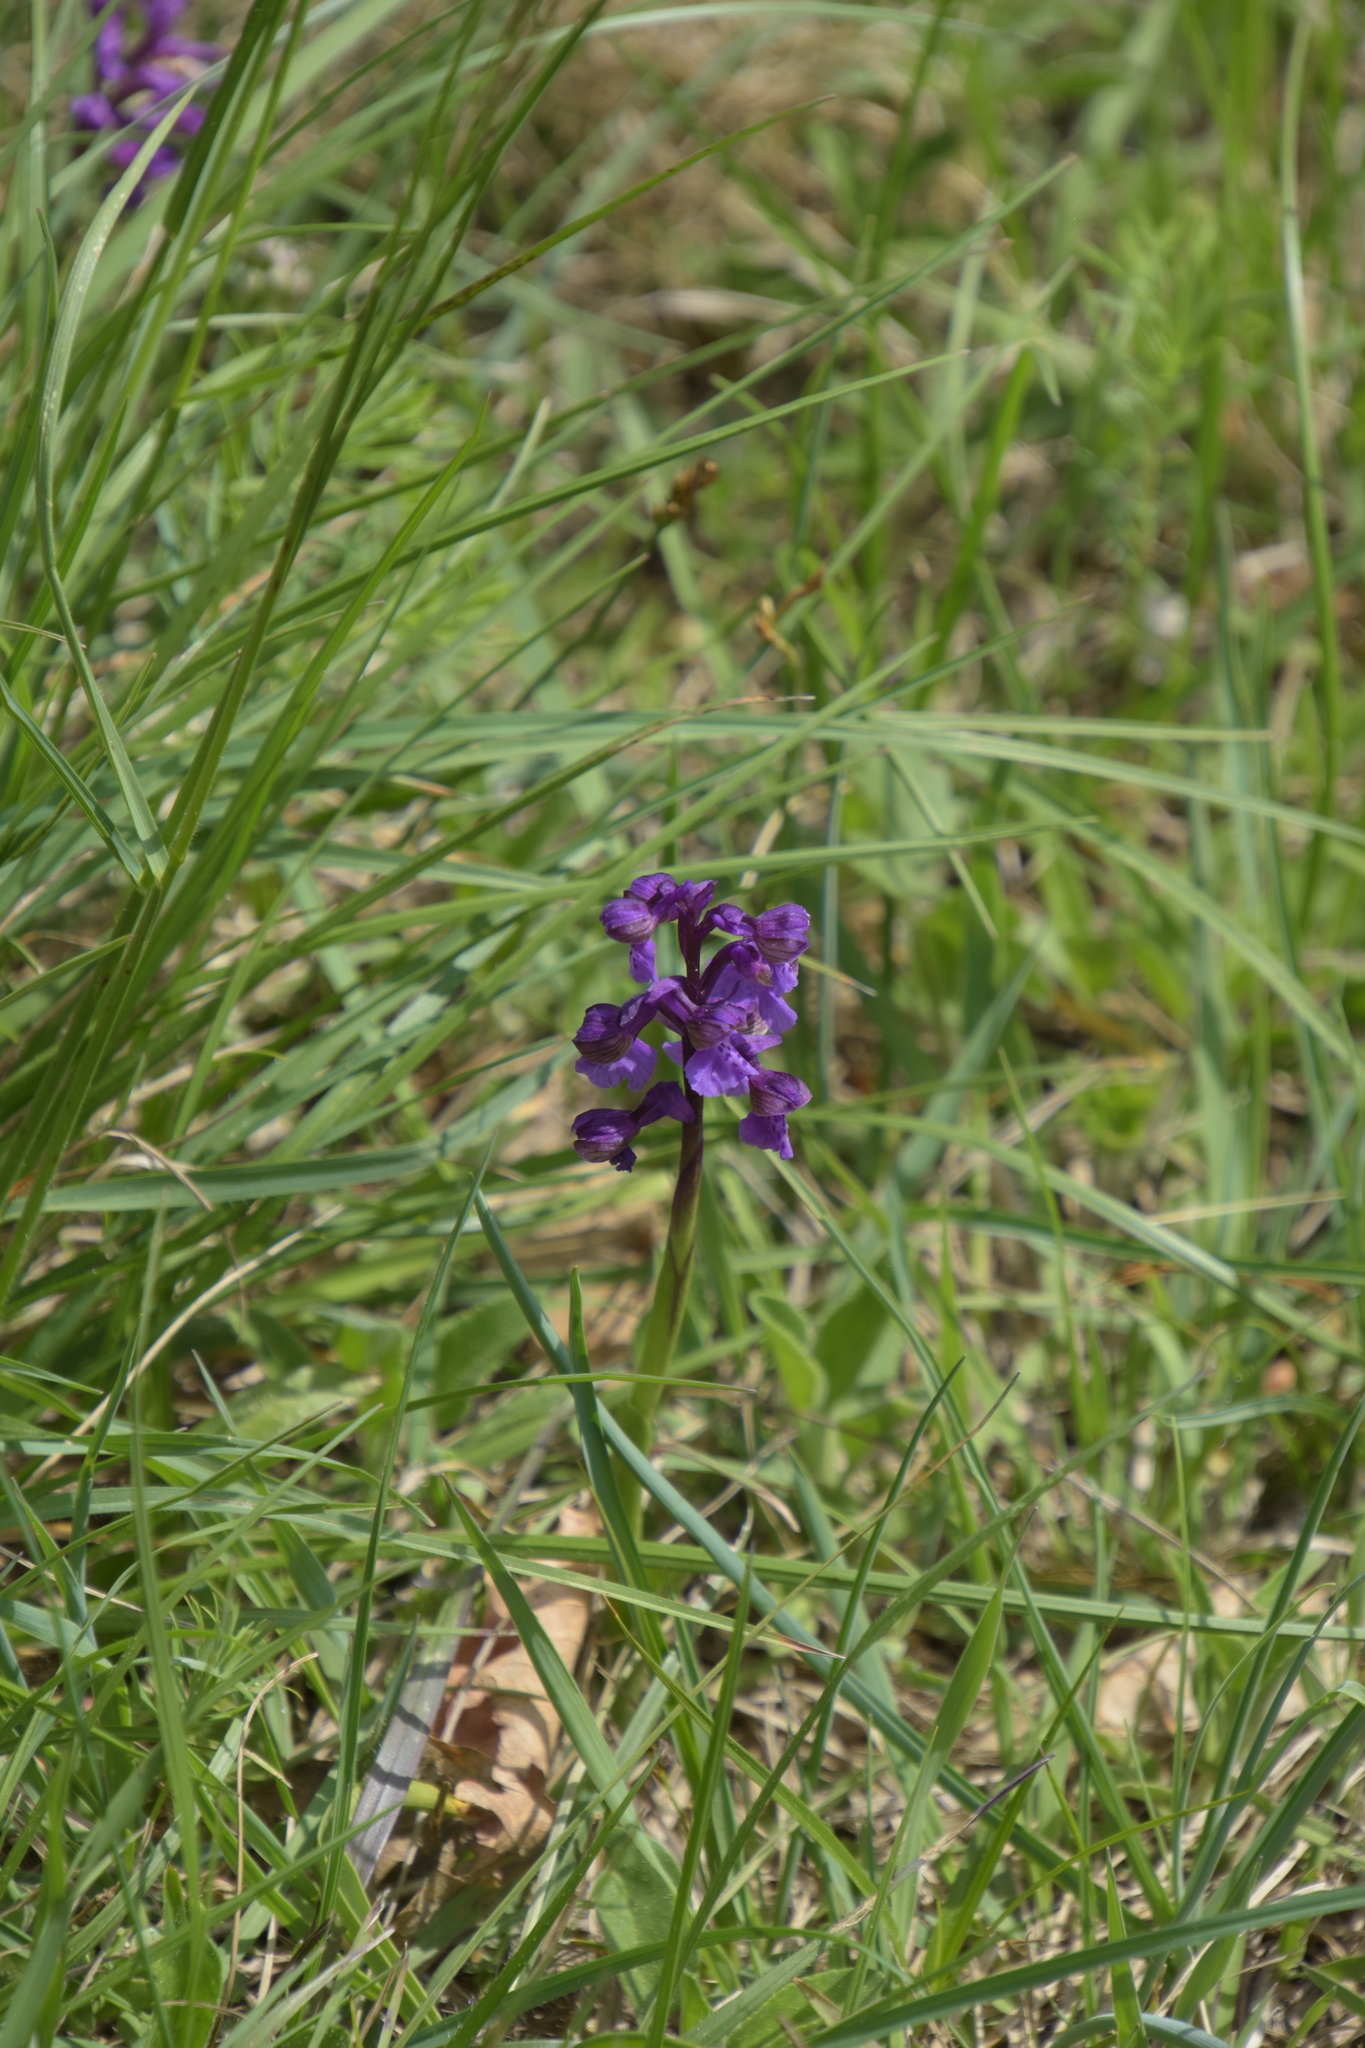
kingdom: Plantae
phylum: Tracheophyta
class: Liliopsida
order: Asparagales
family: Orchidaceae
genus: Anacamptis
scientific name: Anacamptis morio
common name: Green-winged orchid
